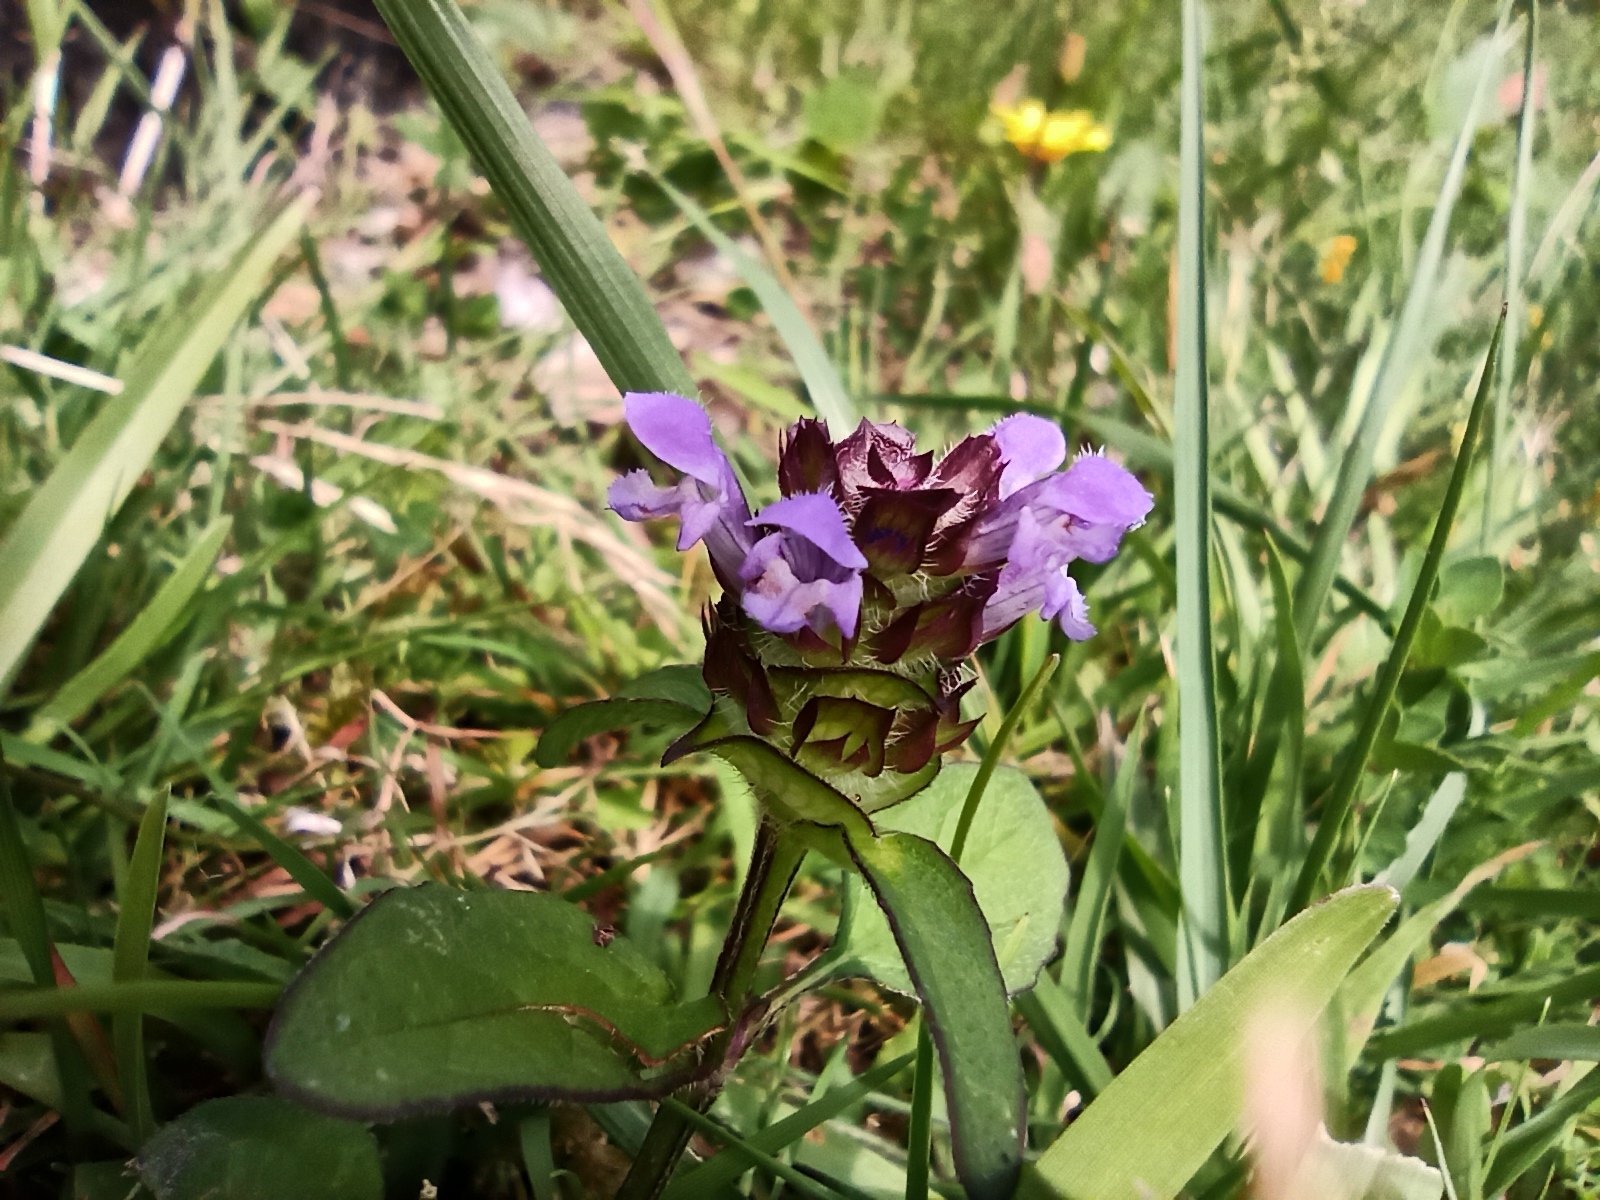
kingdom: Plantae
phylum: Tracheophyta
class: Magnoliopsida
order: Lamiales
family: Lamiaceae
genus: Prunella
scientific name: Prunella vulgaris
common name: Heal-all
